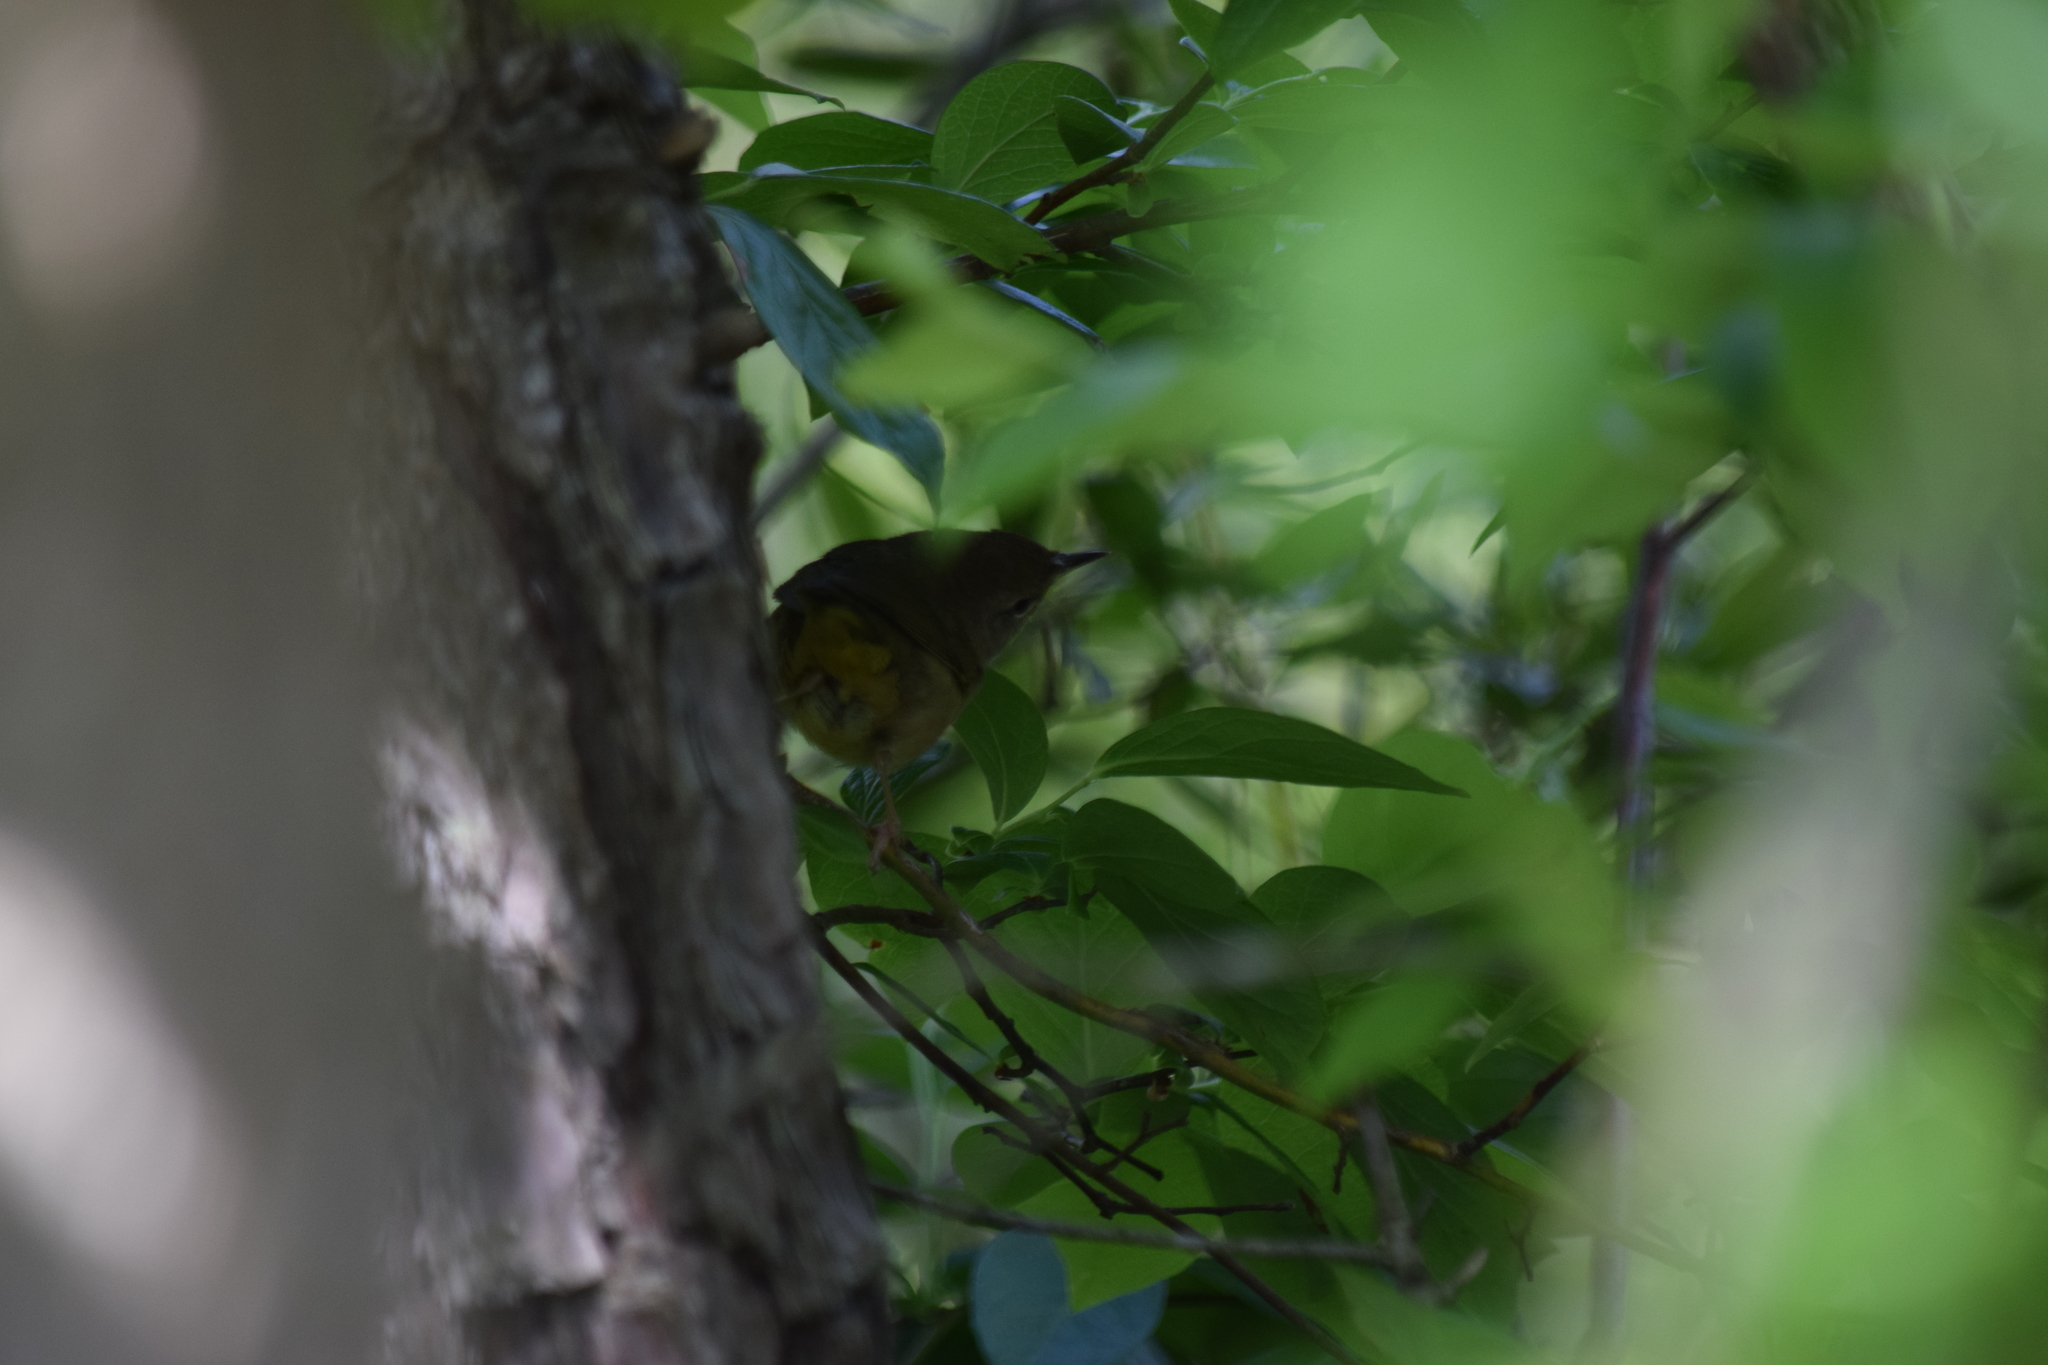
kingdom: Animalia
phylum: Chordata
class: Aves
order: Passeriformes
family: Parulidae
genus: Geothlypis
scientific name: Geothlypis trichas
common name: Common yellowthroat
